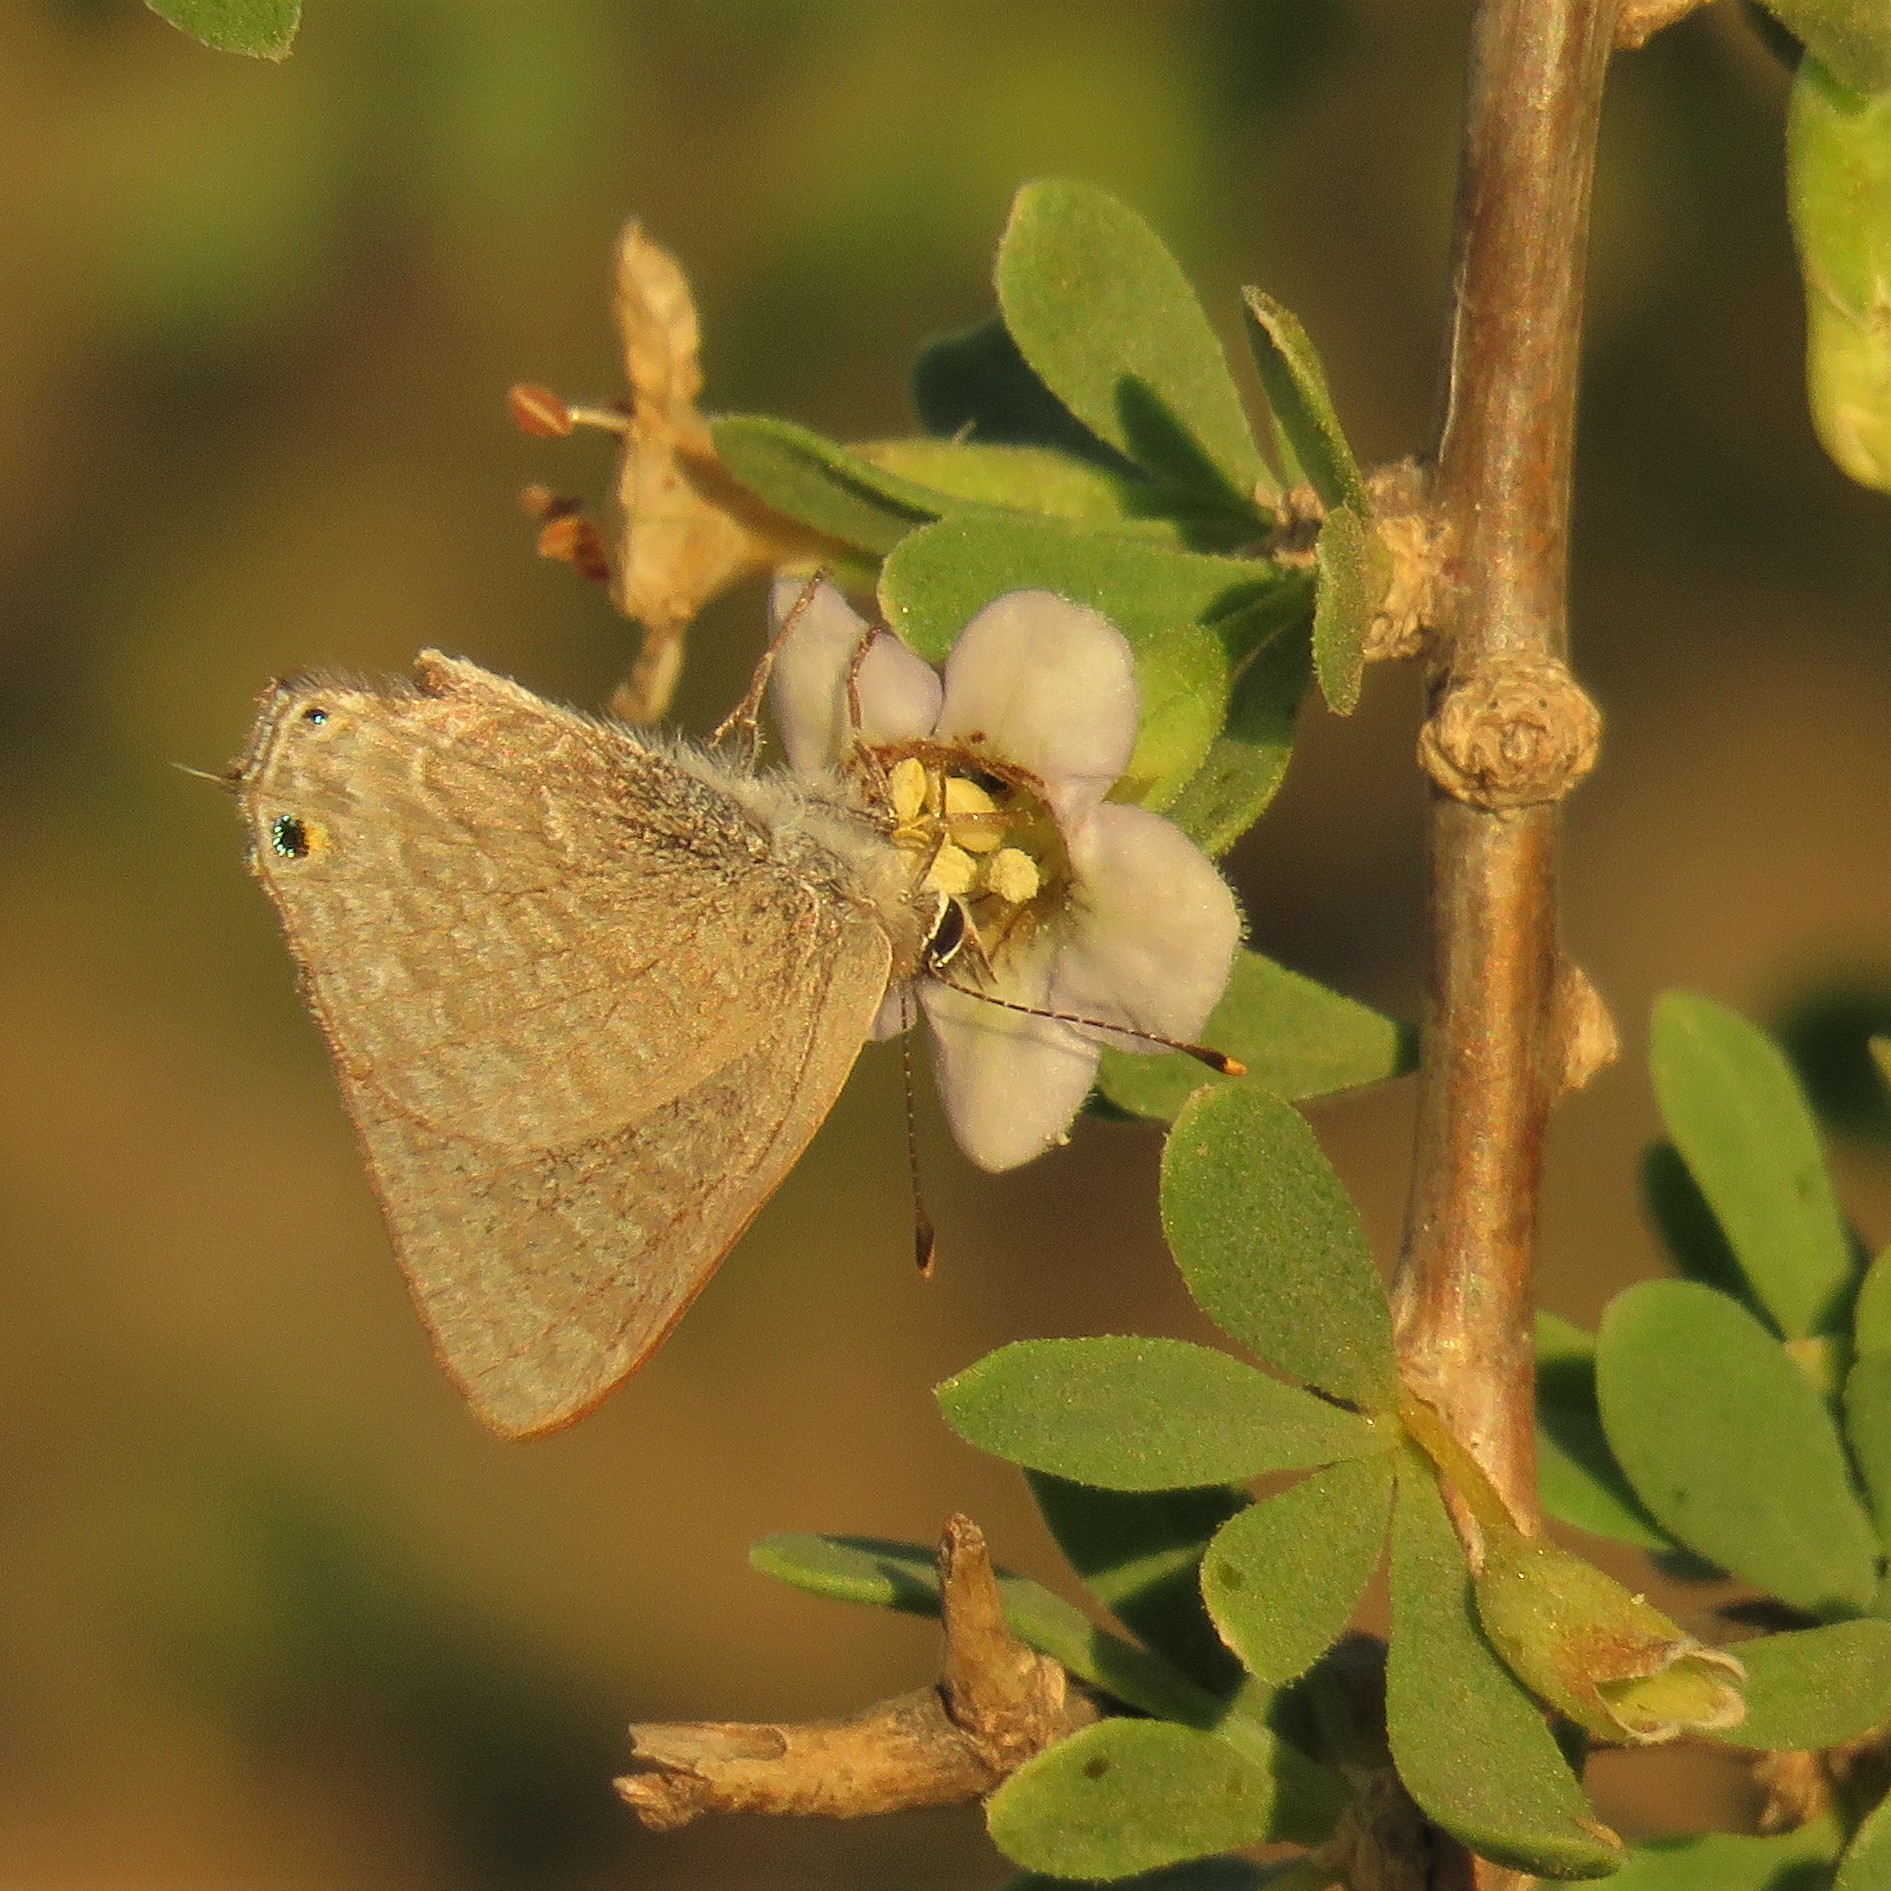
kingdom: Animalia
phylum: Arthropoda
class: Insecta
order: Lepidoptera
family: Lycaenidae
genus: Anthene
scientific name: Anthene definita
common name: Common ciliate blue
